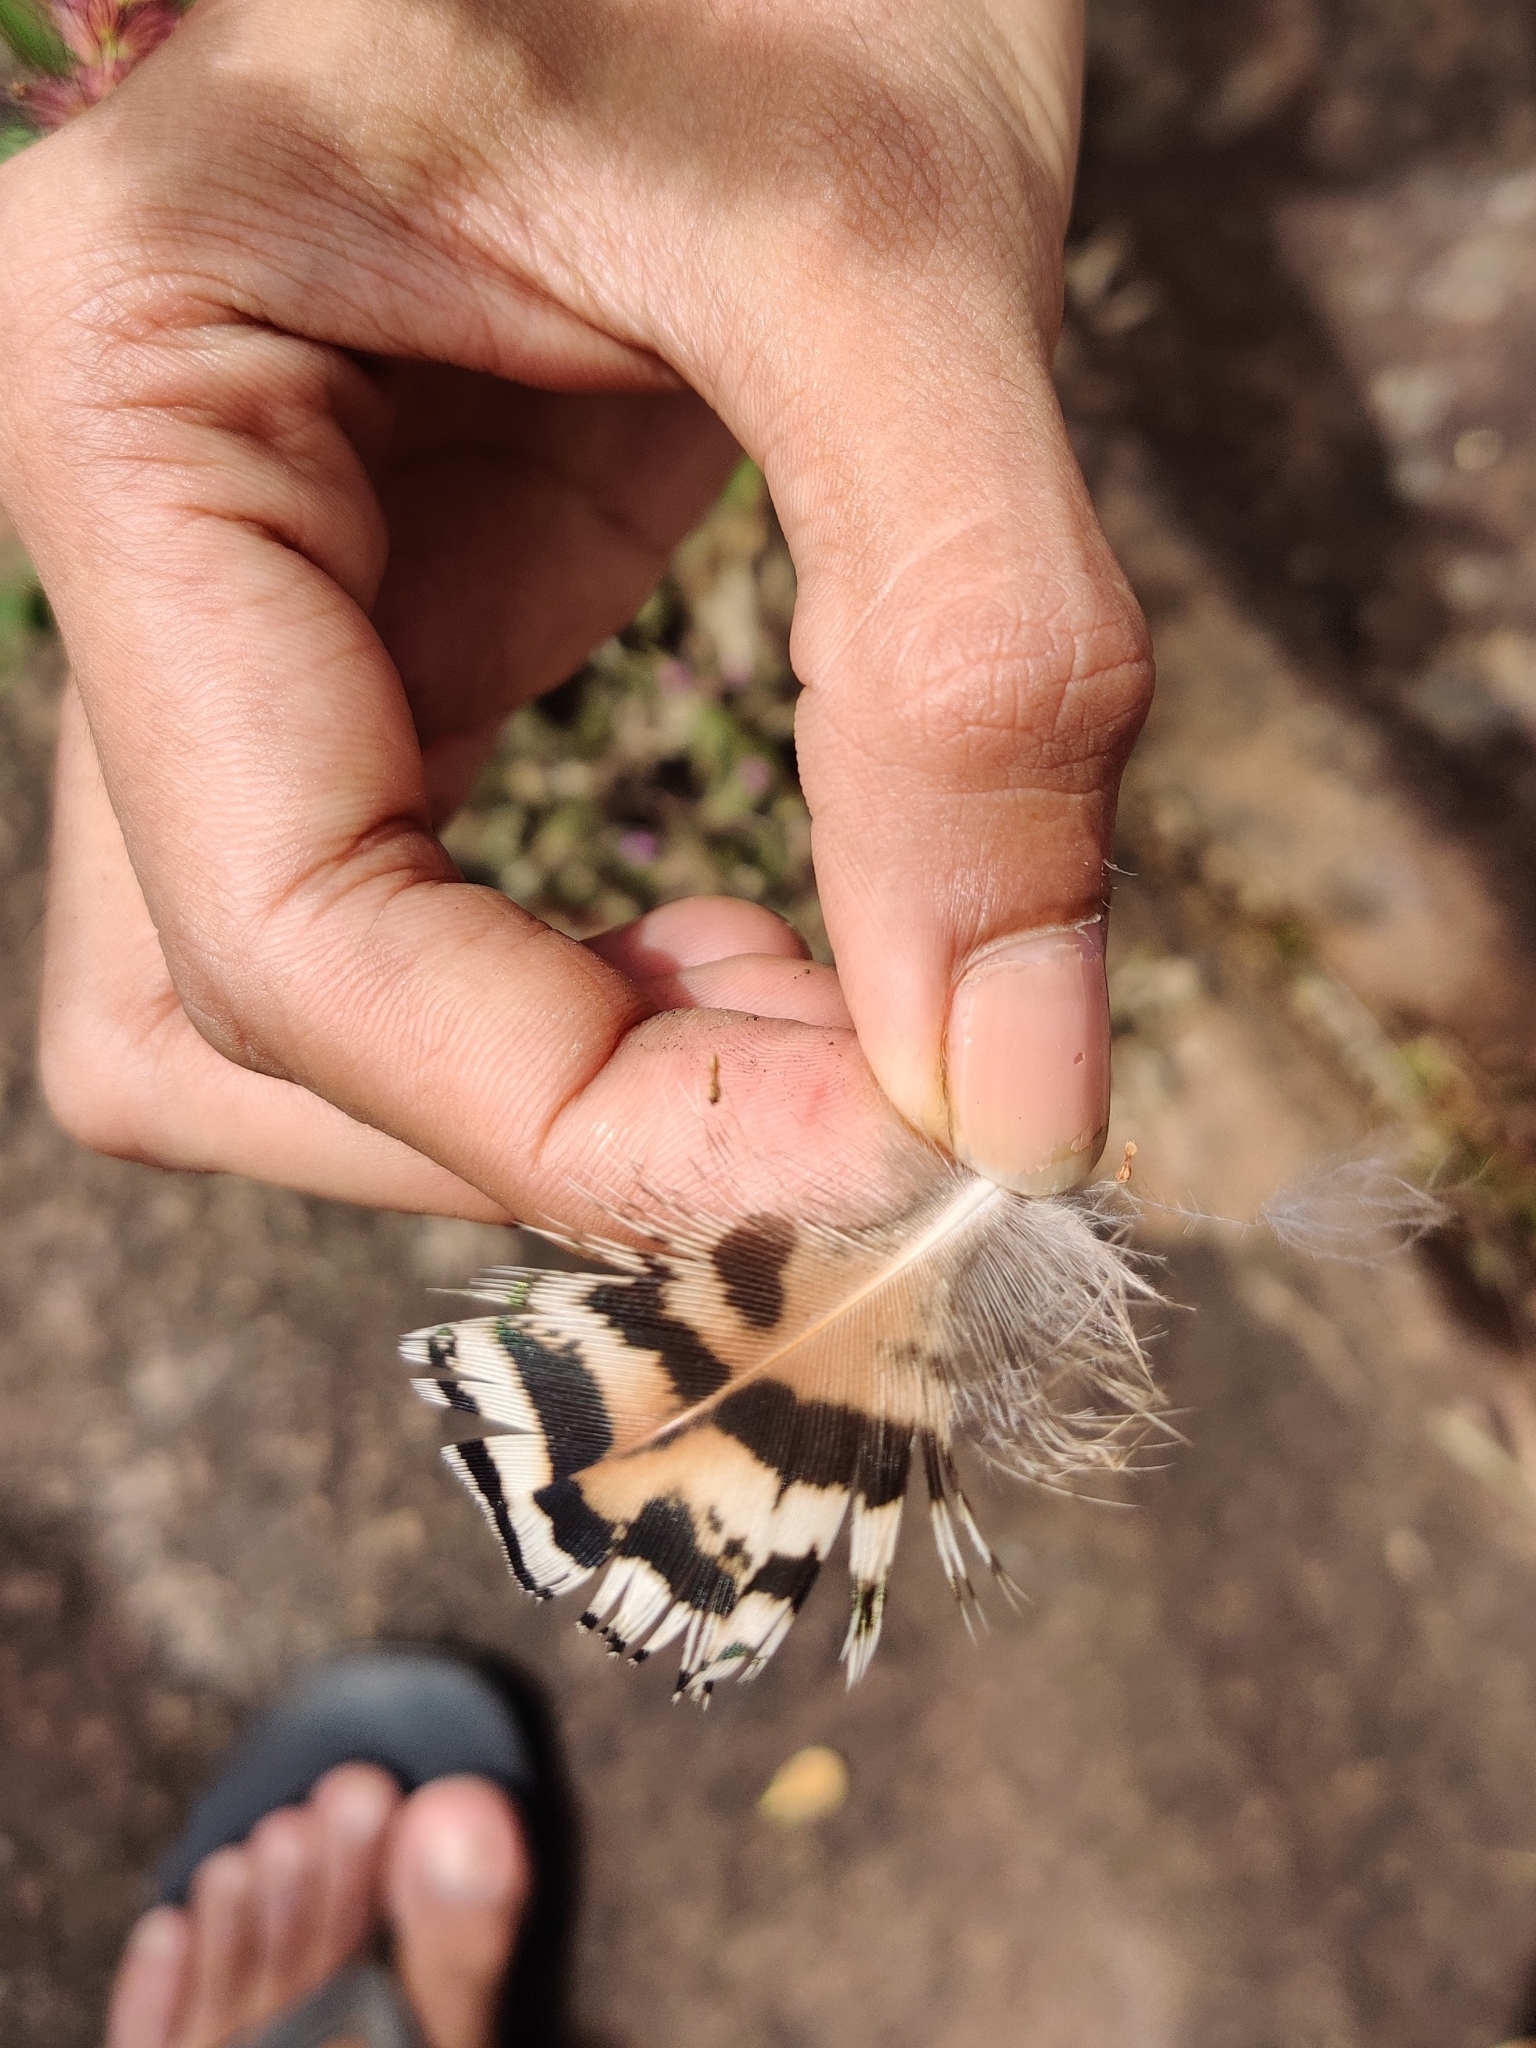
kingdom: Animalia
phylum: Chordata
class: Aves
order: Galliformes
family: Phasianidae
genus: Pavo
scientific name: Pavo cristatus
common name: Indian peafowl
